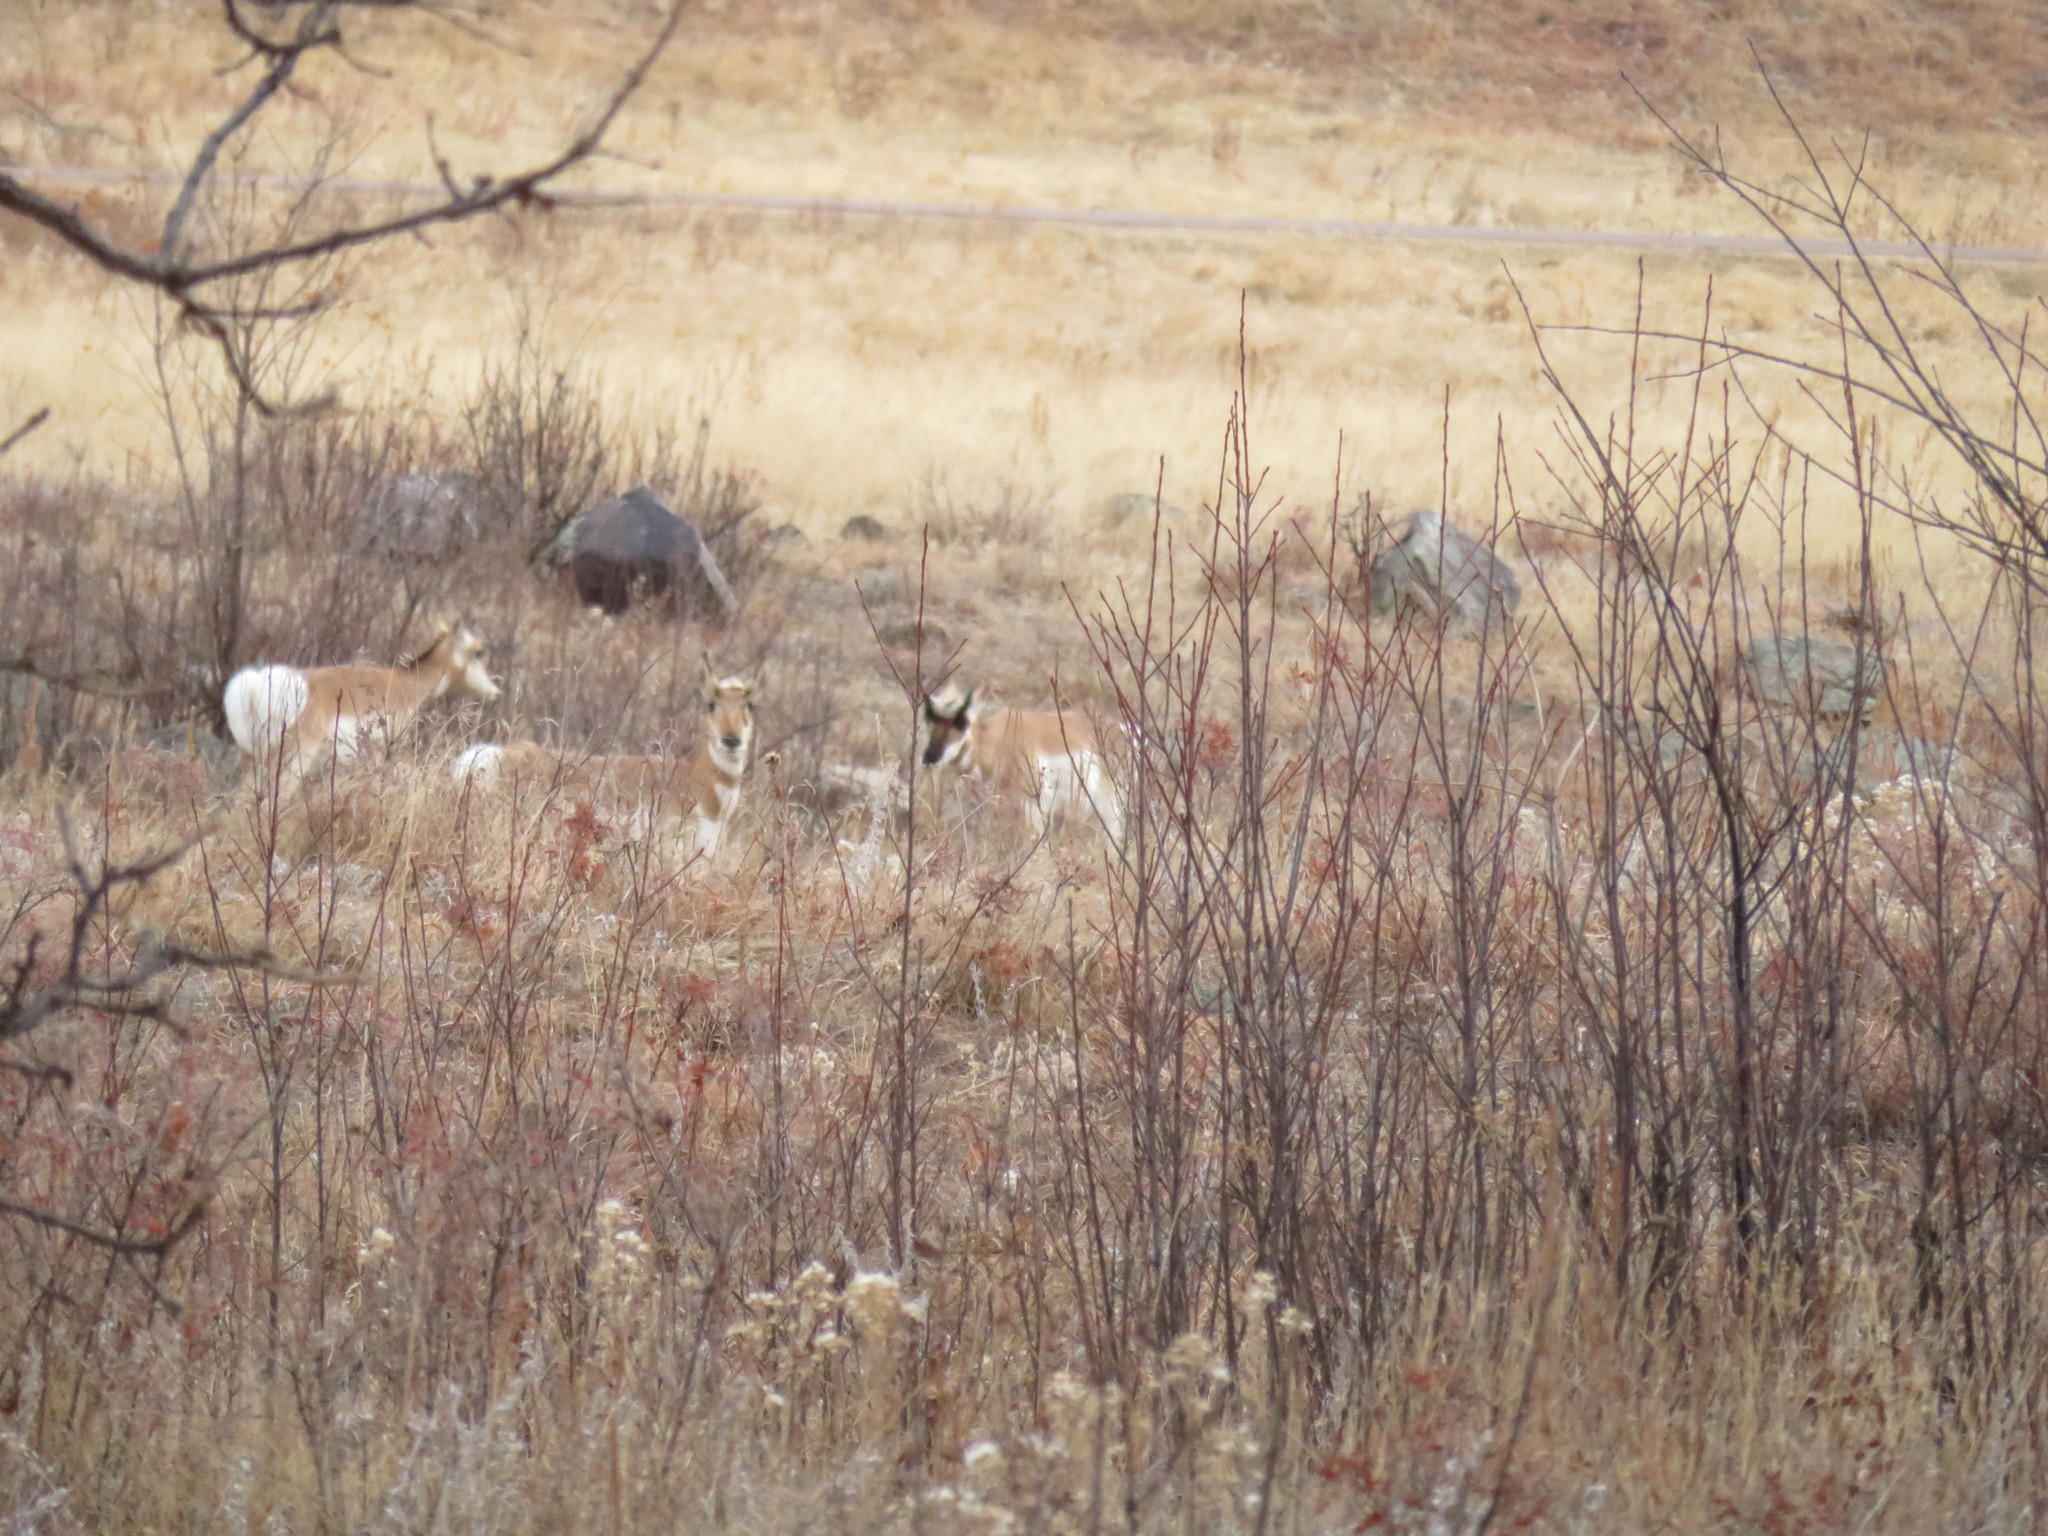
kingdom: Animalia
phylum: Chordata
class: Mammalia
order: Artiodactyla
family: Antilocapridae
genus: Antilocapra
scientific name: Antilocapra americana
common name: Pronghorn
